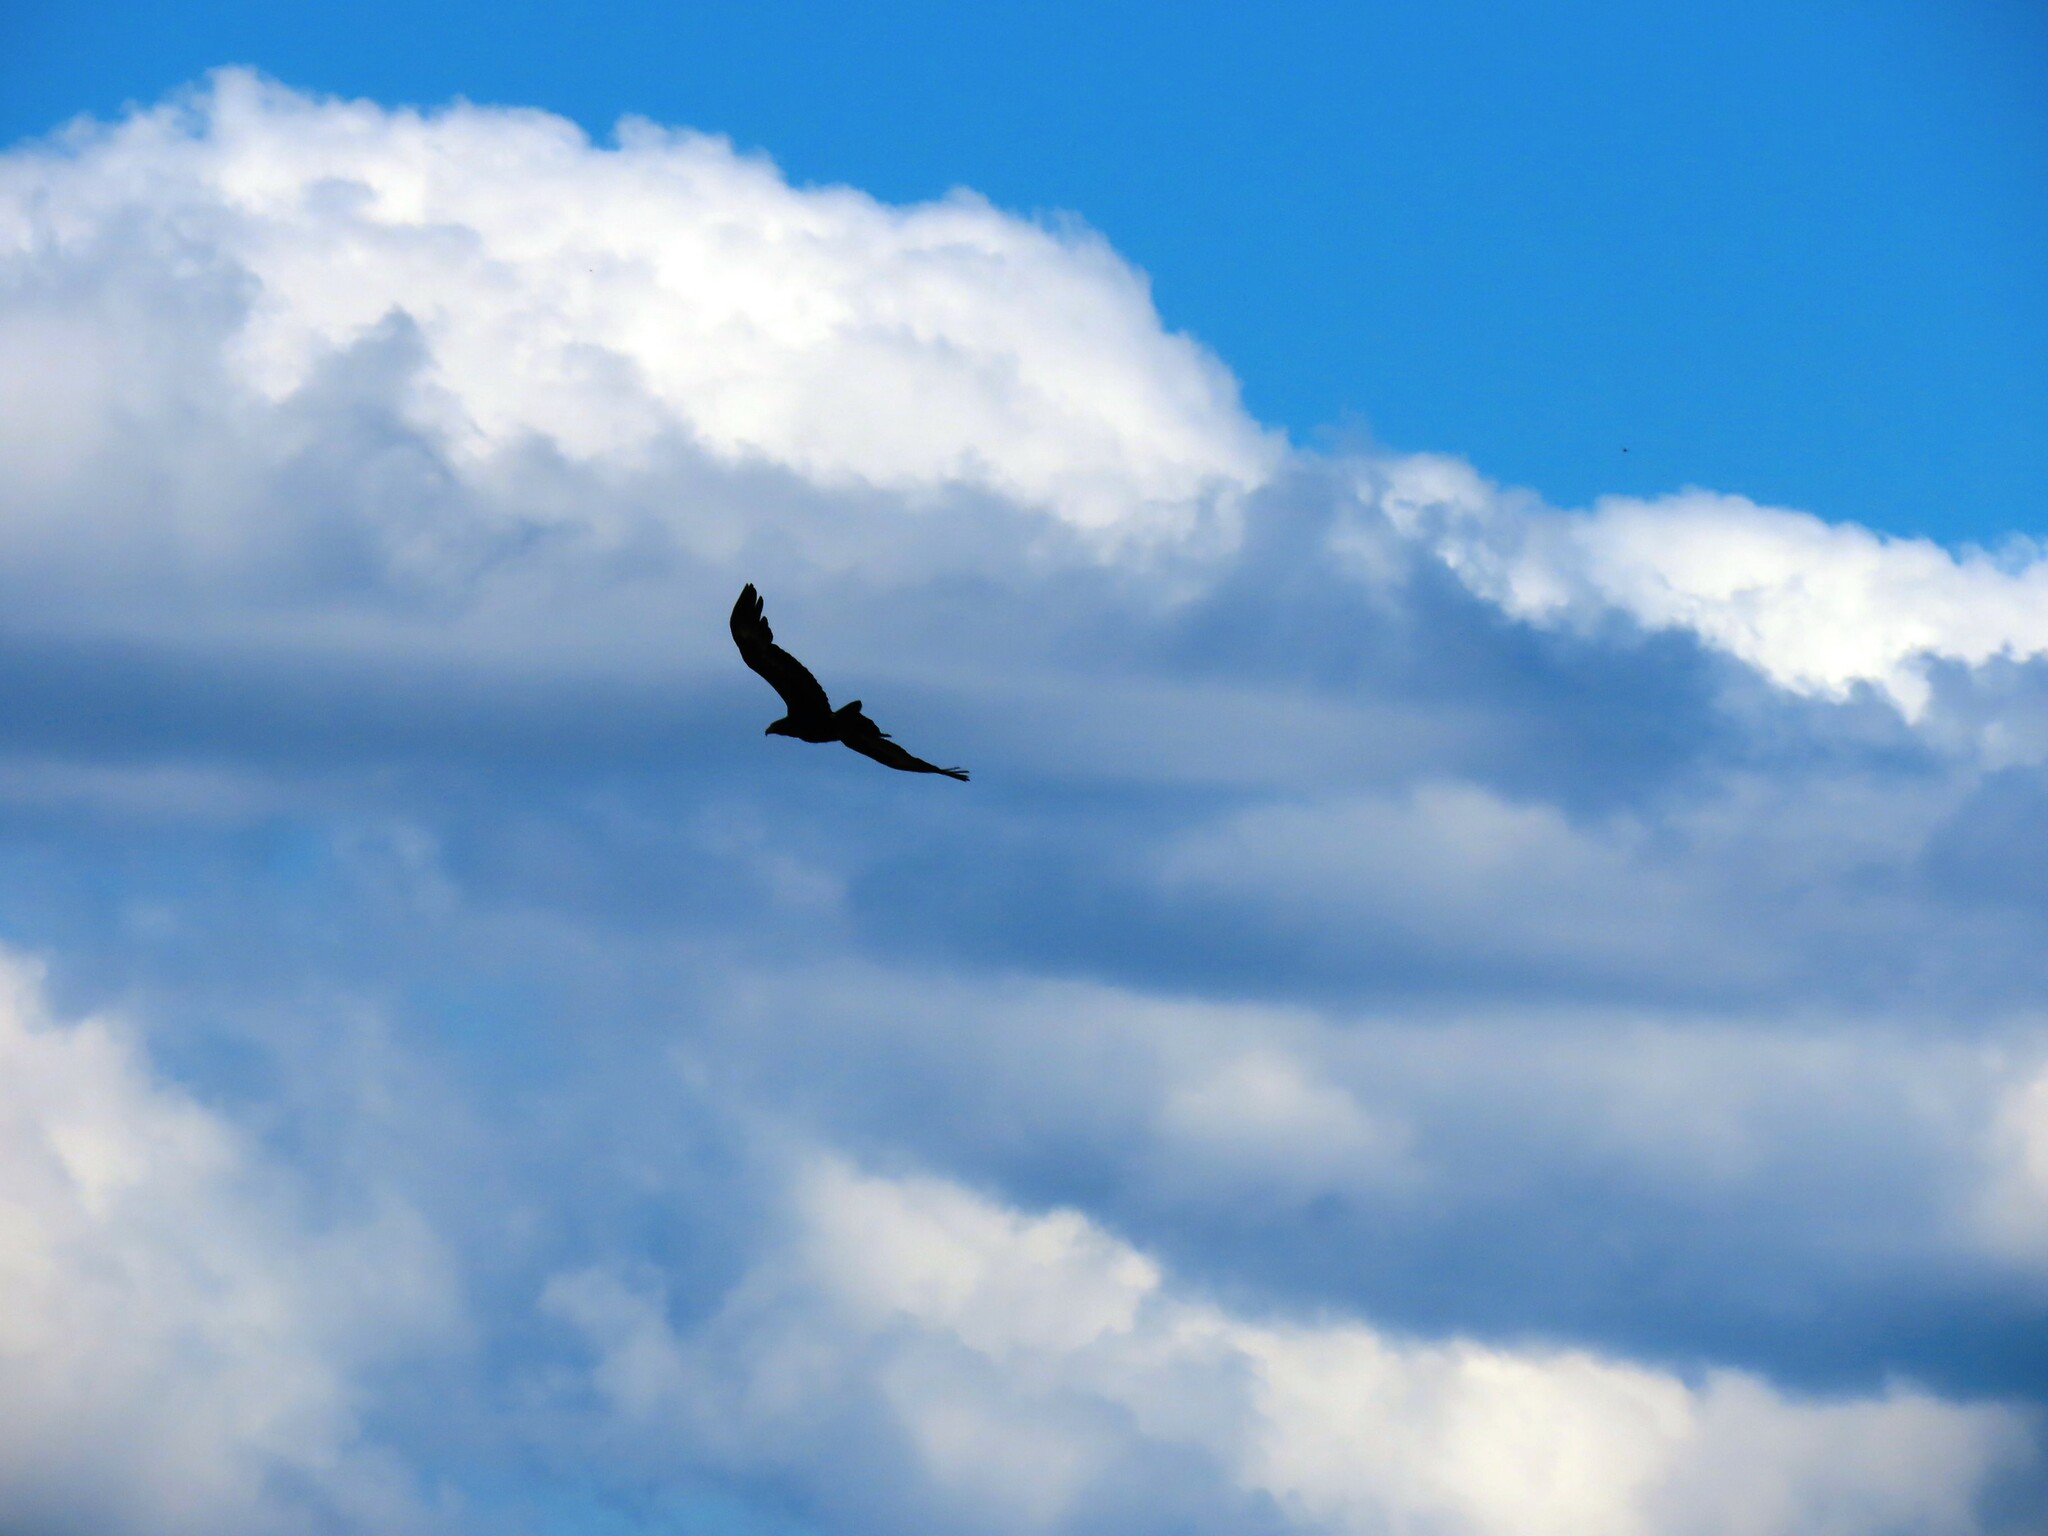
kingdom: Animalia
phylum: Chordata
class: Aves
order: Accipitriformes
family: Accipitridae
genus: Aquila
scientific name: Aquila audax
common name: Wedge-tailed eagle
